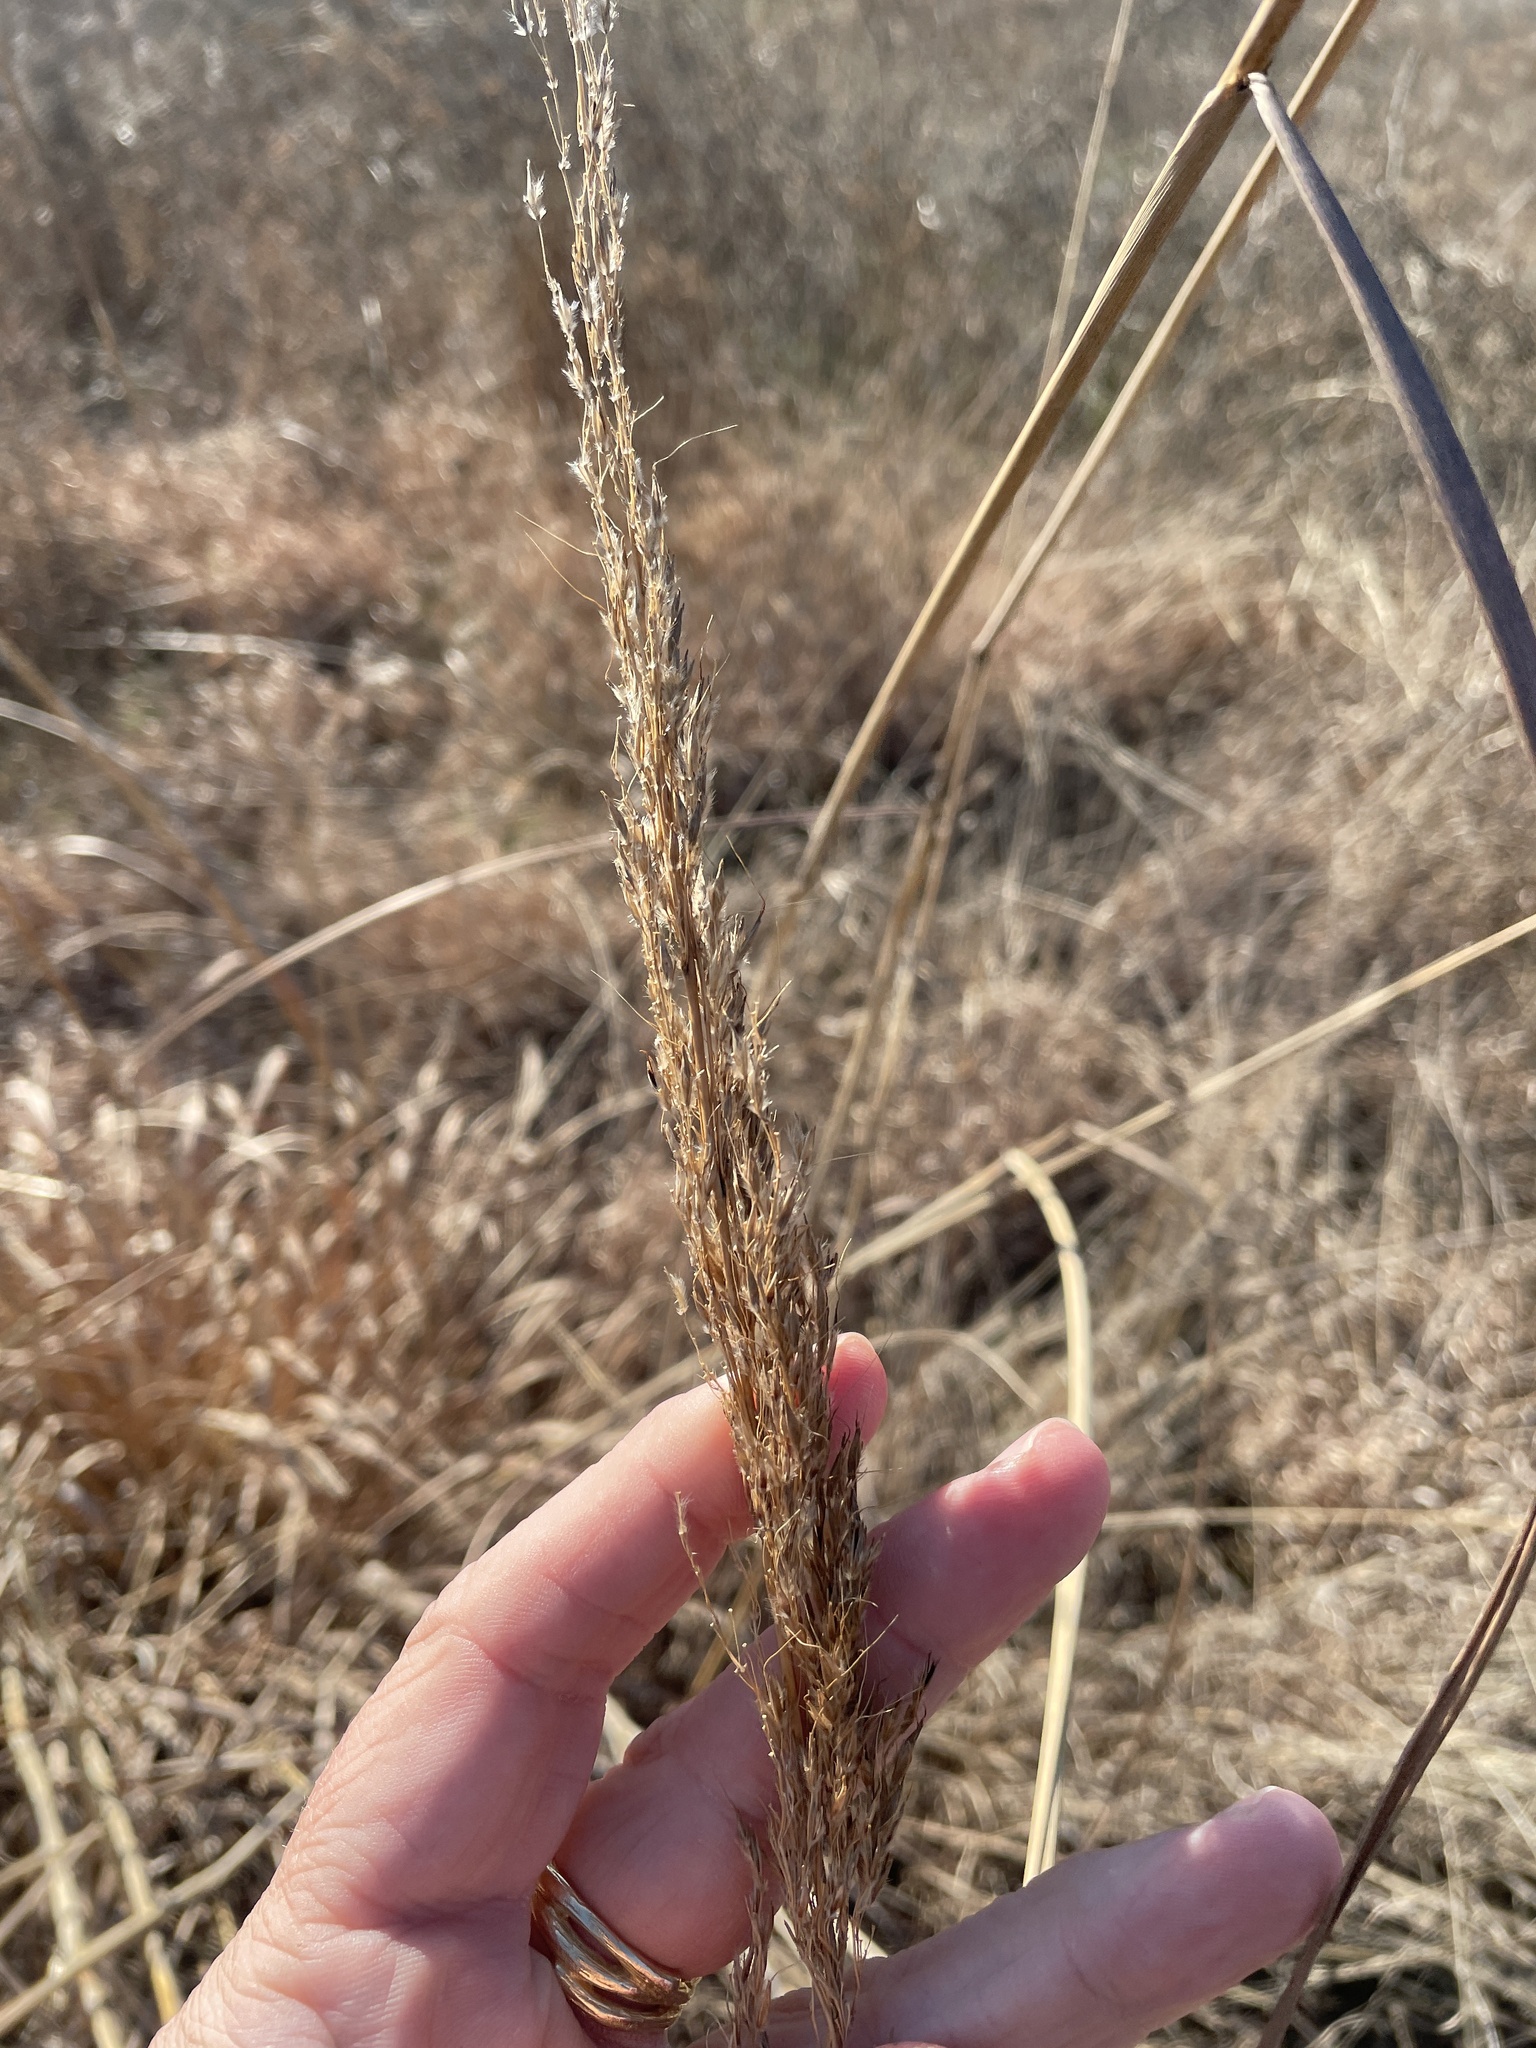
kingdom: Plantae
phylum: Tracheophyta
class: Liliopsida
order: Poales
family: Poaceae
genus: Sorghastrum
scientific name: Sorghastrum nutans
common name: Indian grass
